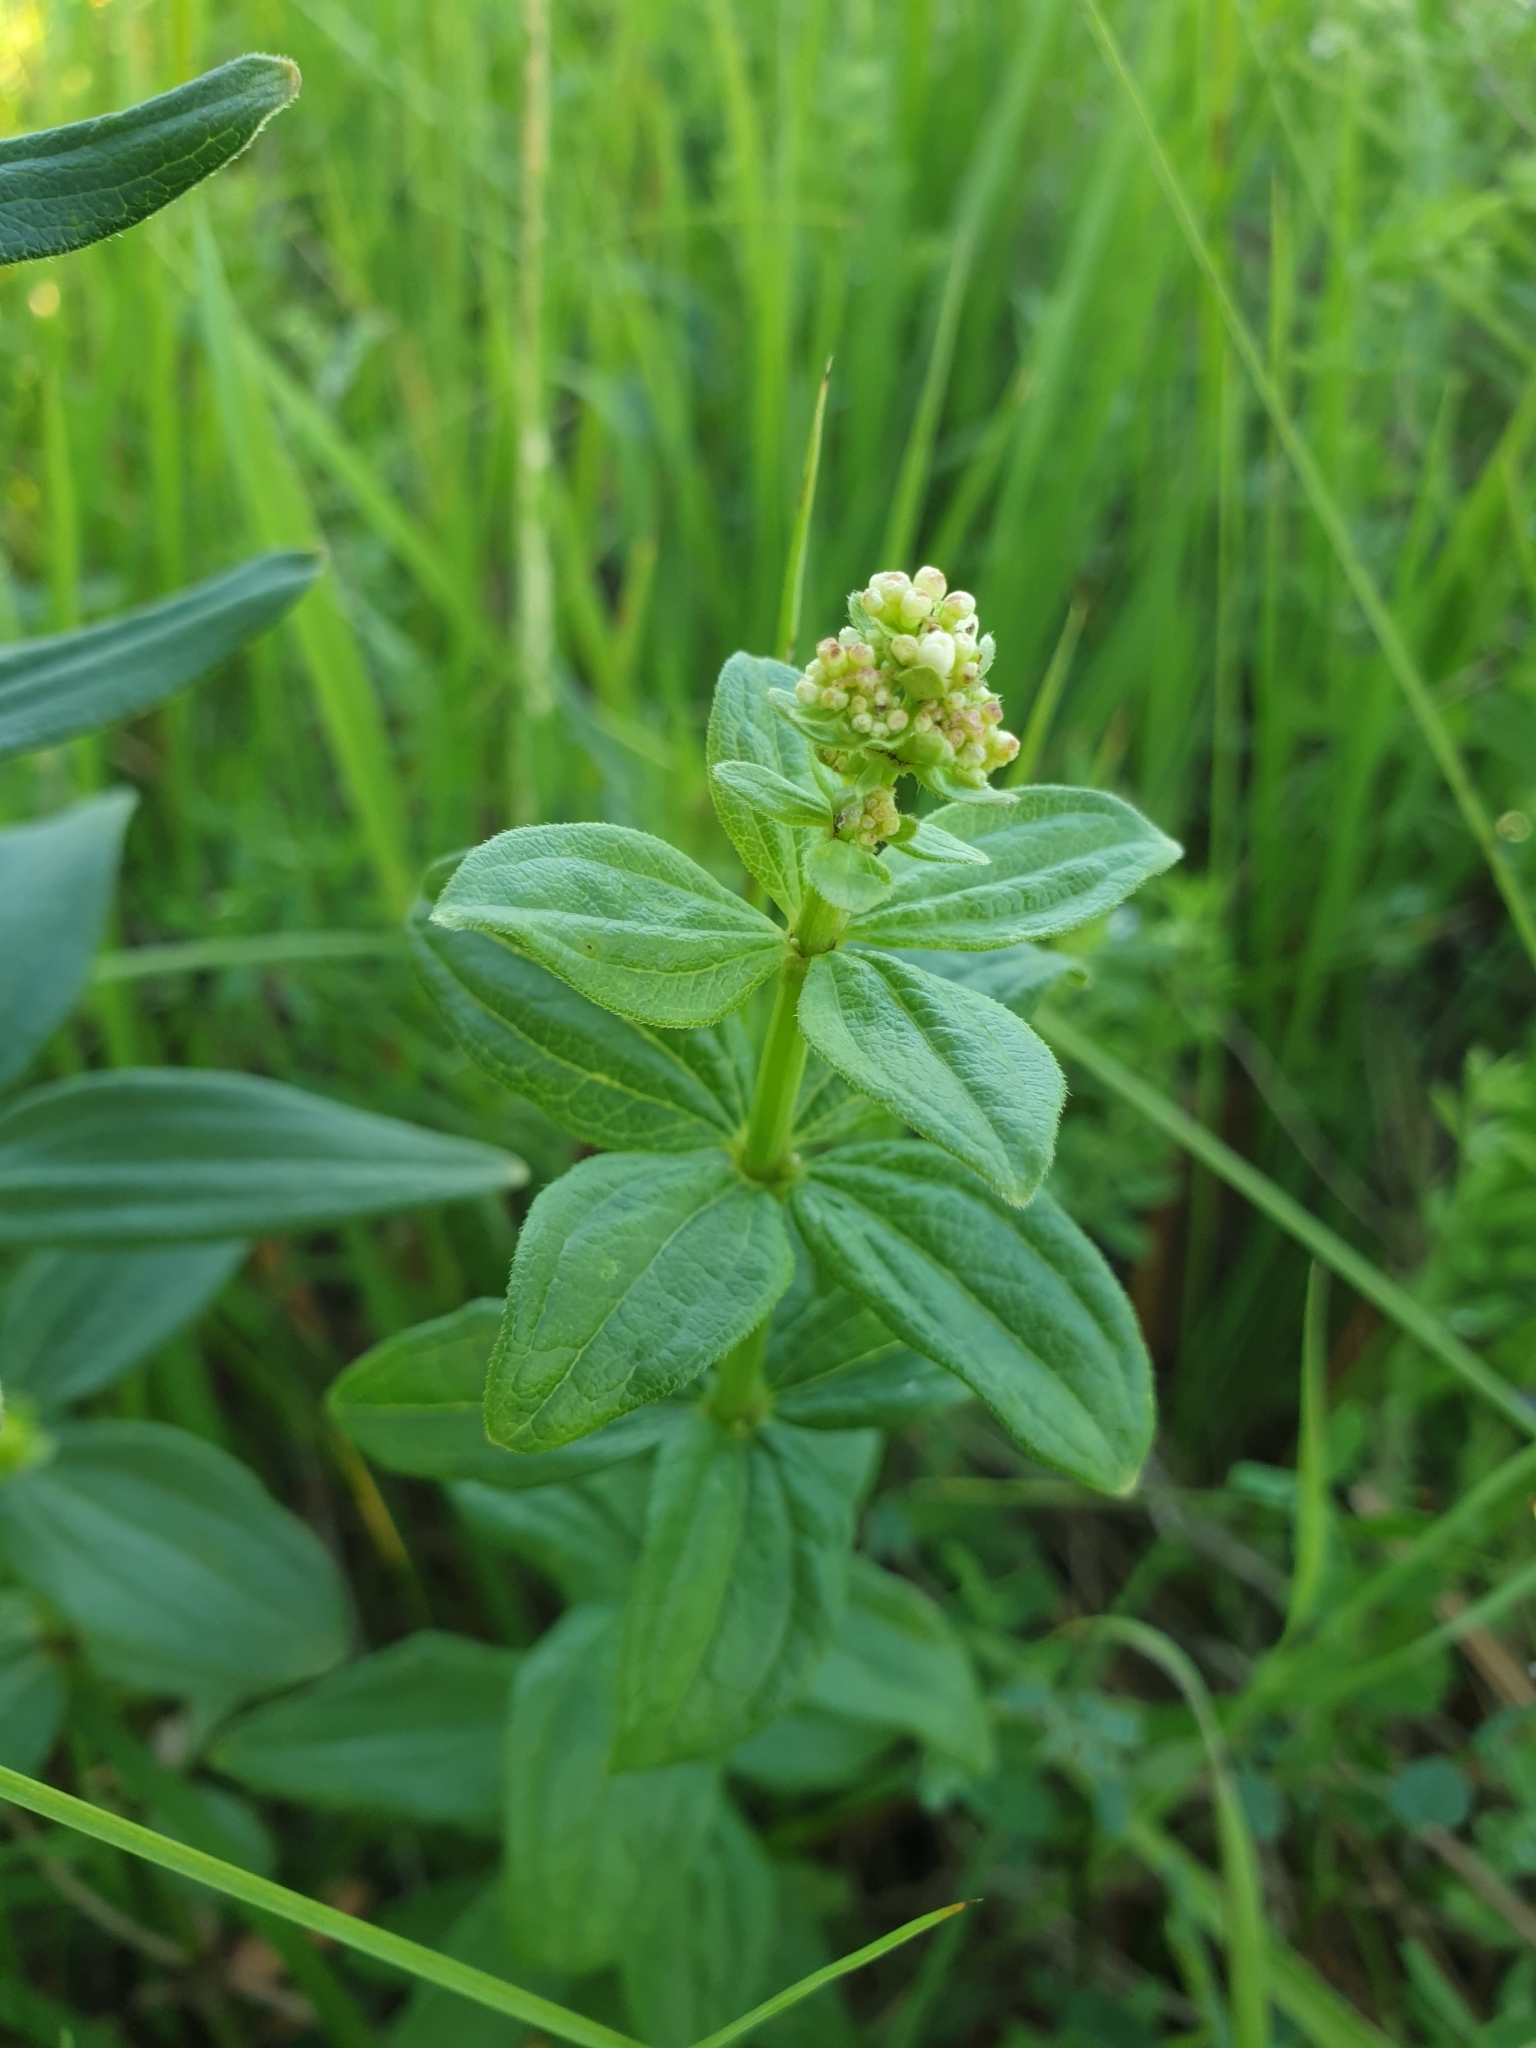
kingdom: Plantae
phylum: Tracheophyta
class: Magnoliopsida
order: Gentianales
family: Rubiaceae
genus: Galium
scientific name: Galium rubioides
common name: European bedstraw
